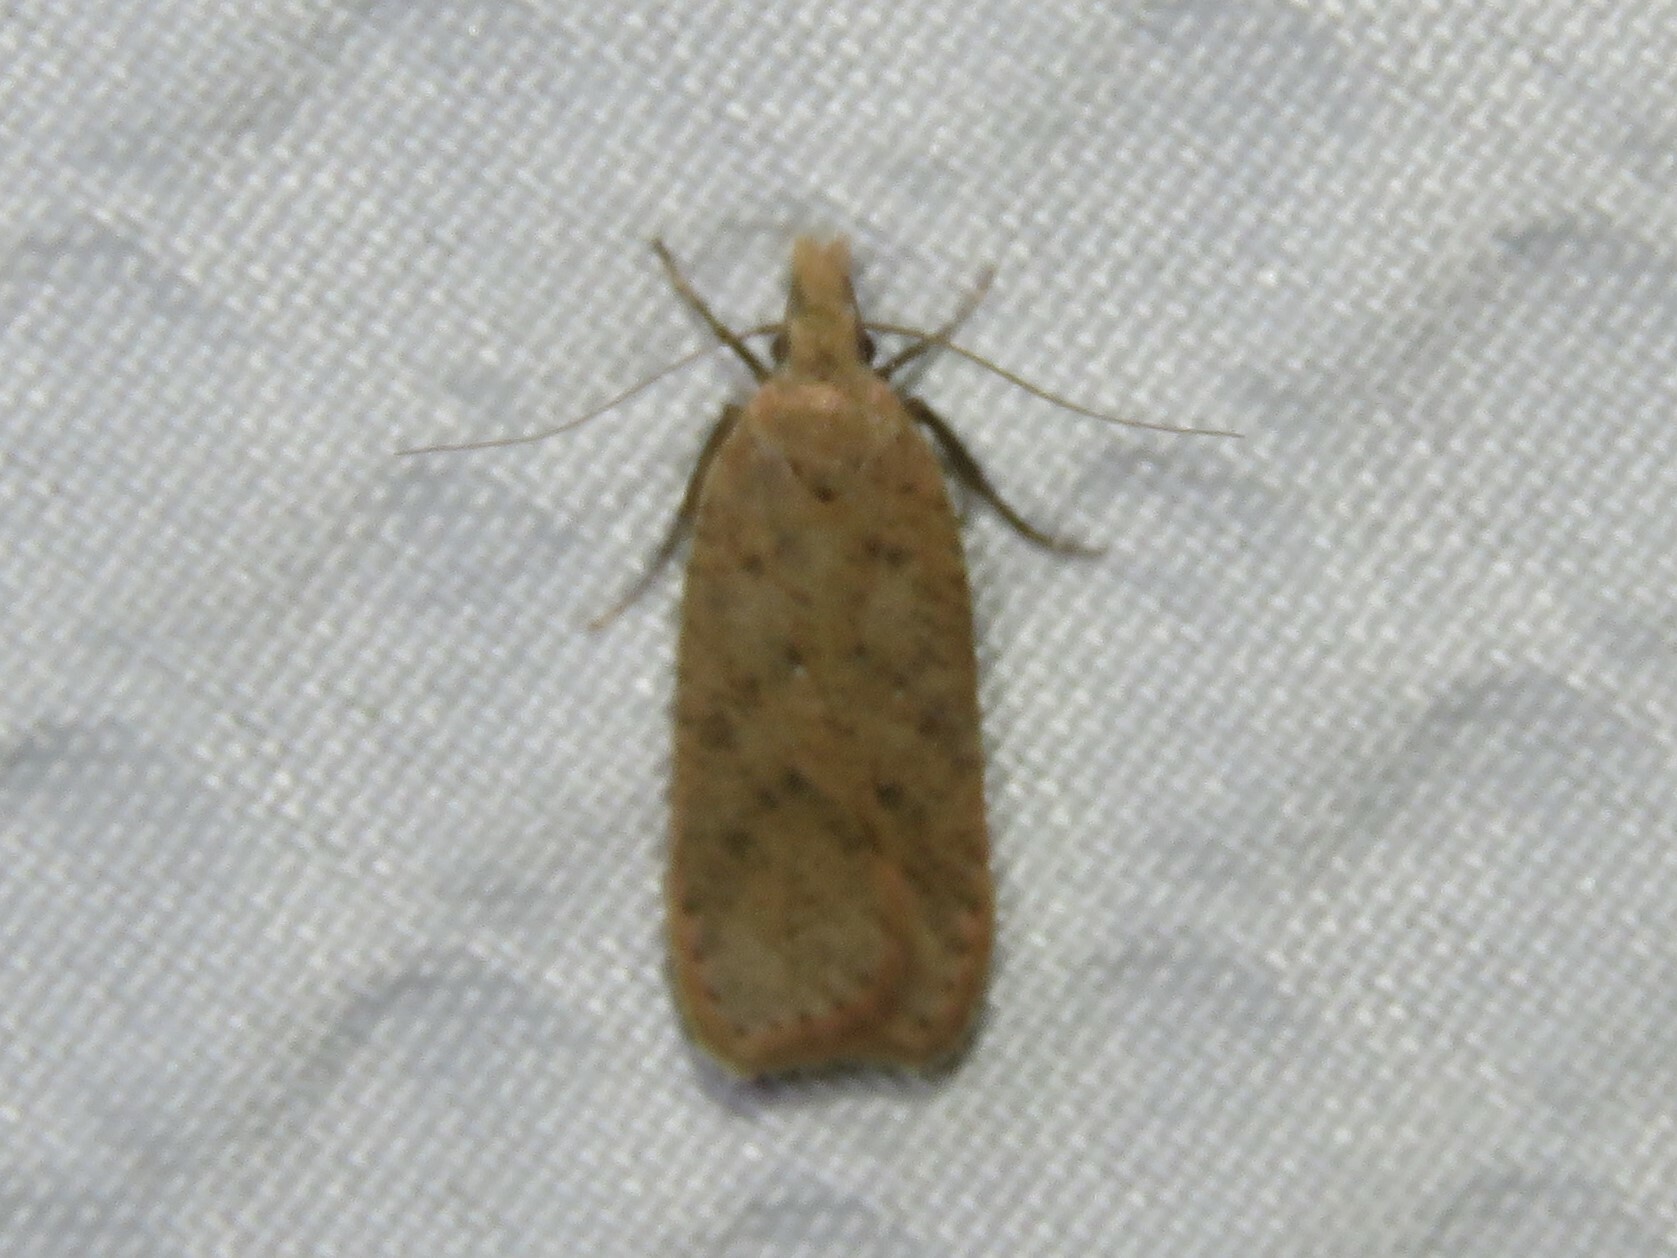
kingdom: Animalia
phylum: Arthropoda
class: Insecta
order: Lepidoptera
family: Gelechiidae
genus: Dichomeris
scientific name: Dichomeris ventrellus
